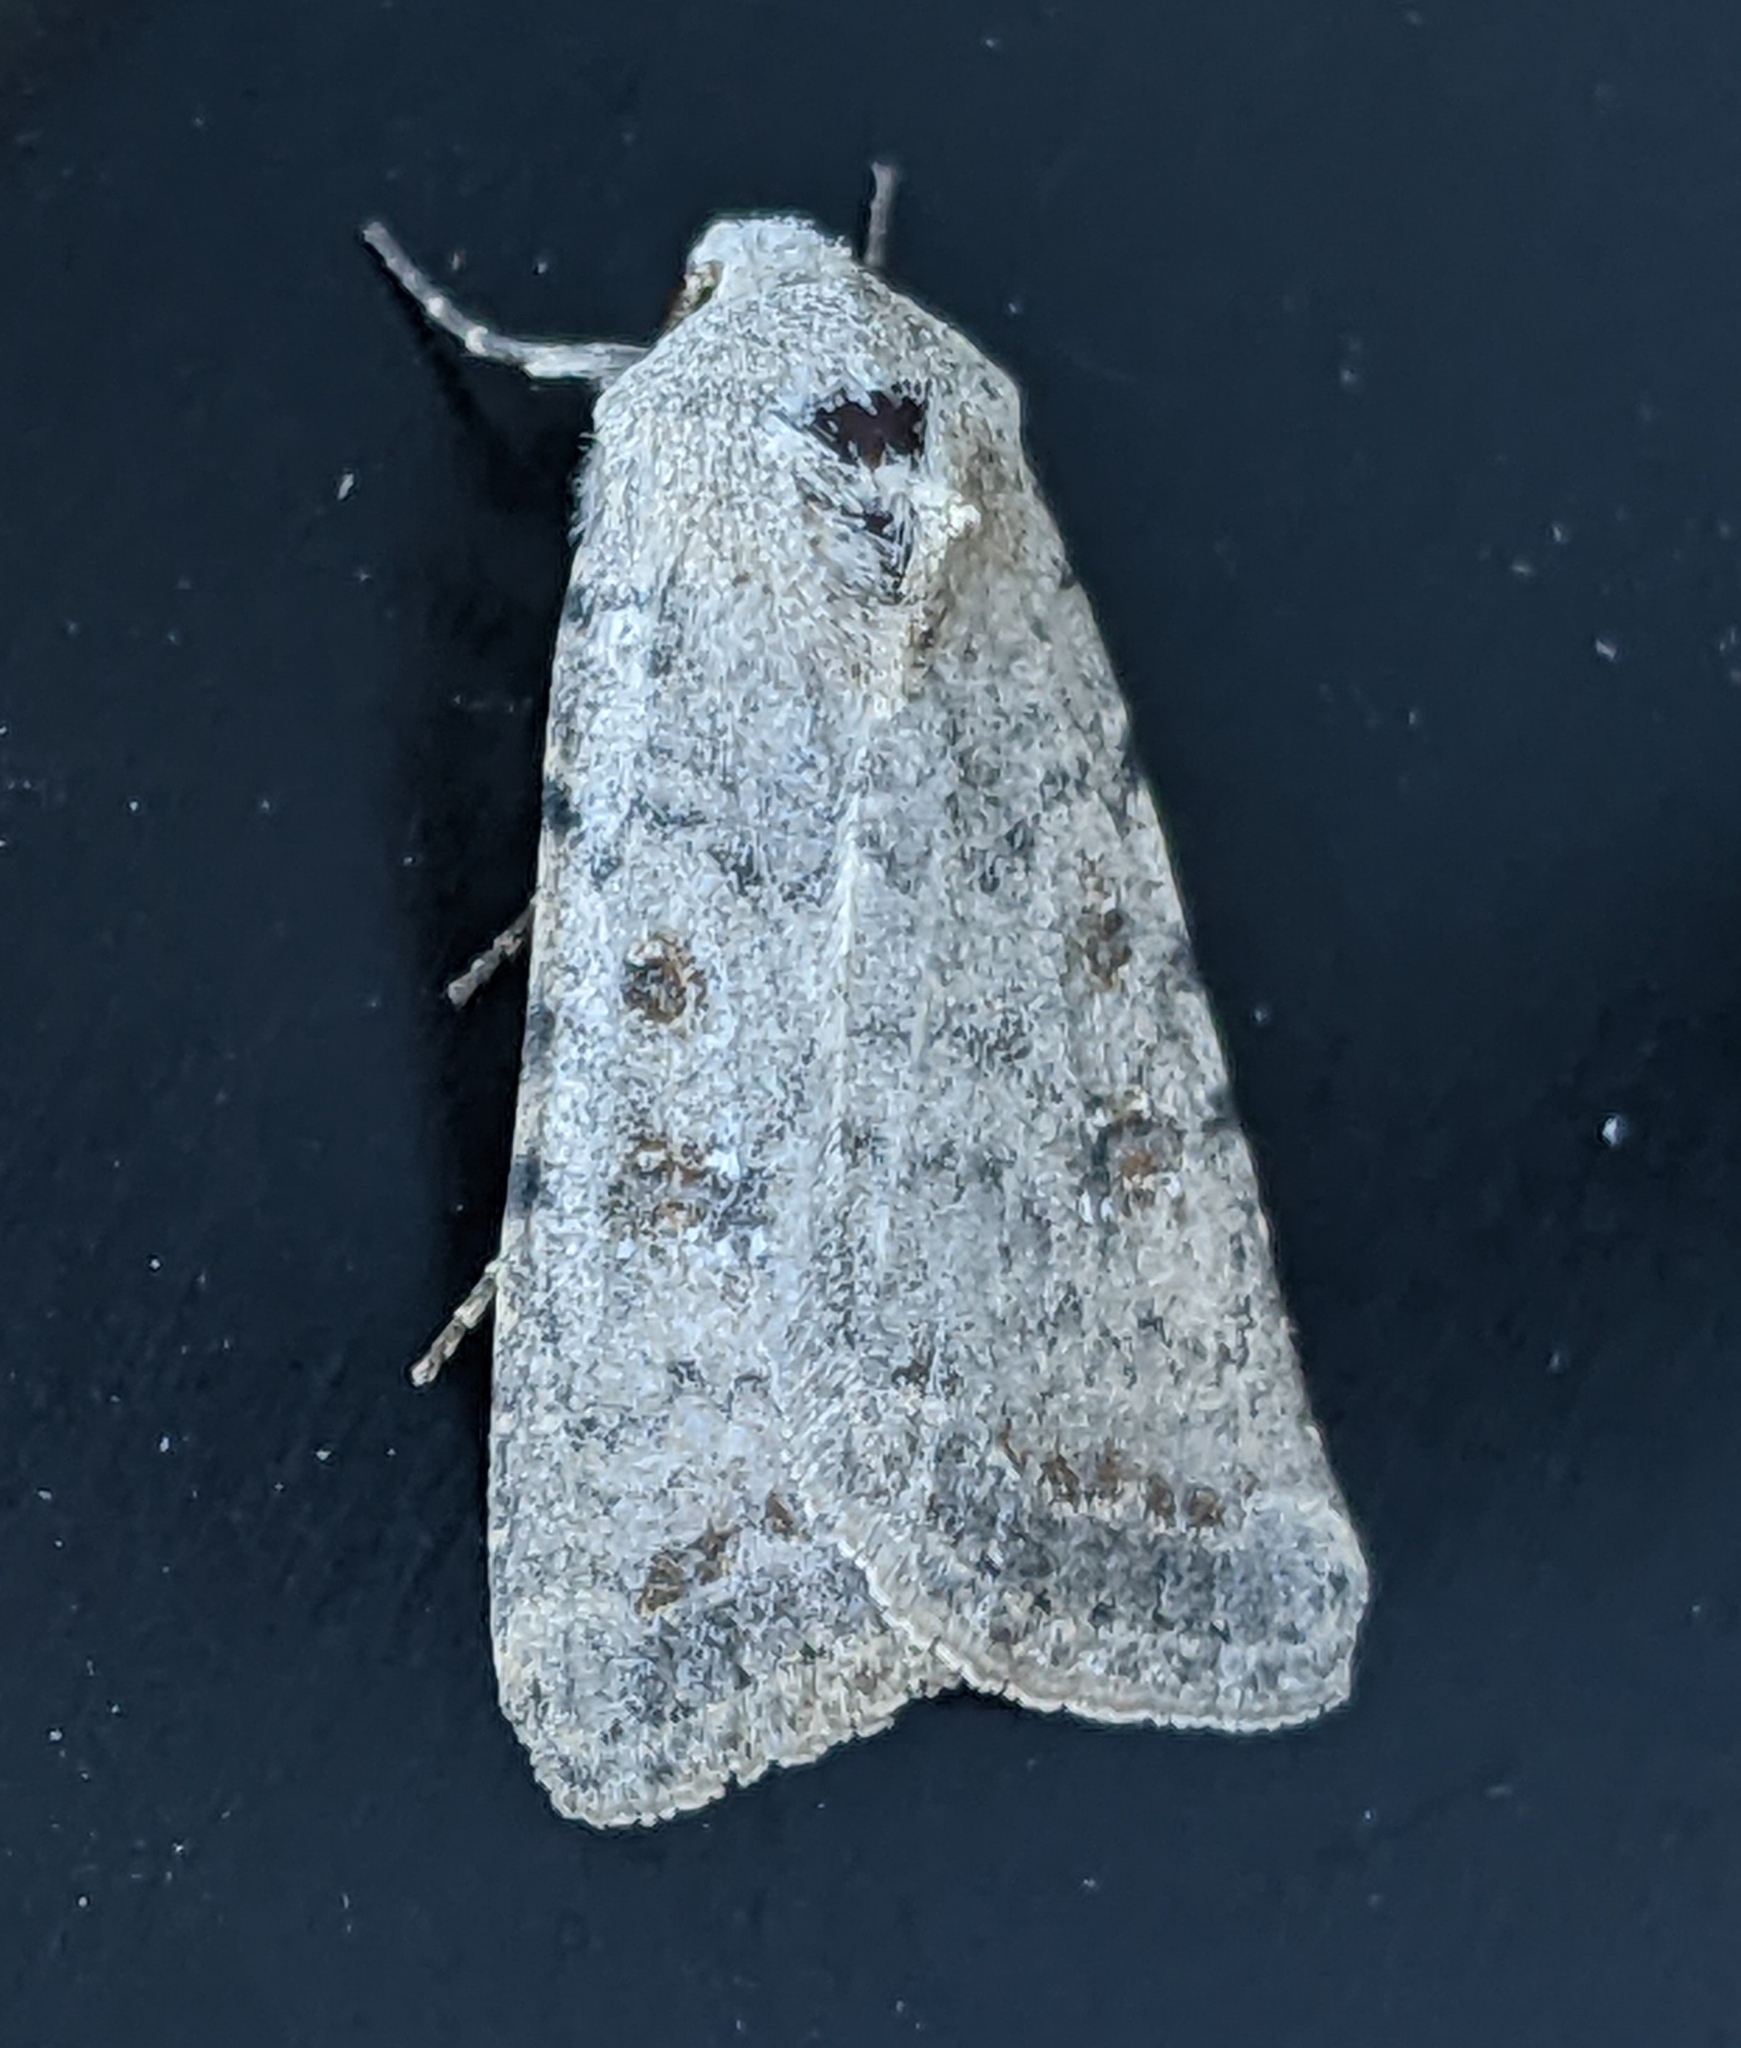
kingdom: Animalia
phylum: Arthropoda
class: Insecta
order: Lepidoptera
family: Noctuidae
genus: Caradrina
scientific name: Caradrina montana
